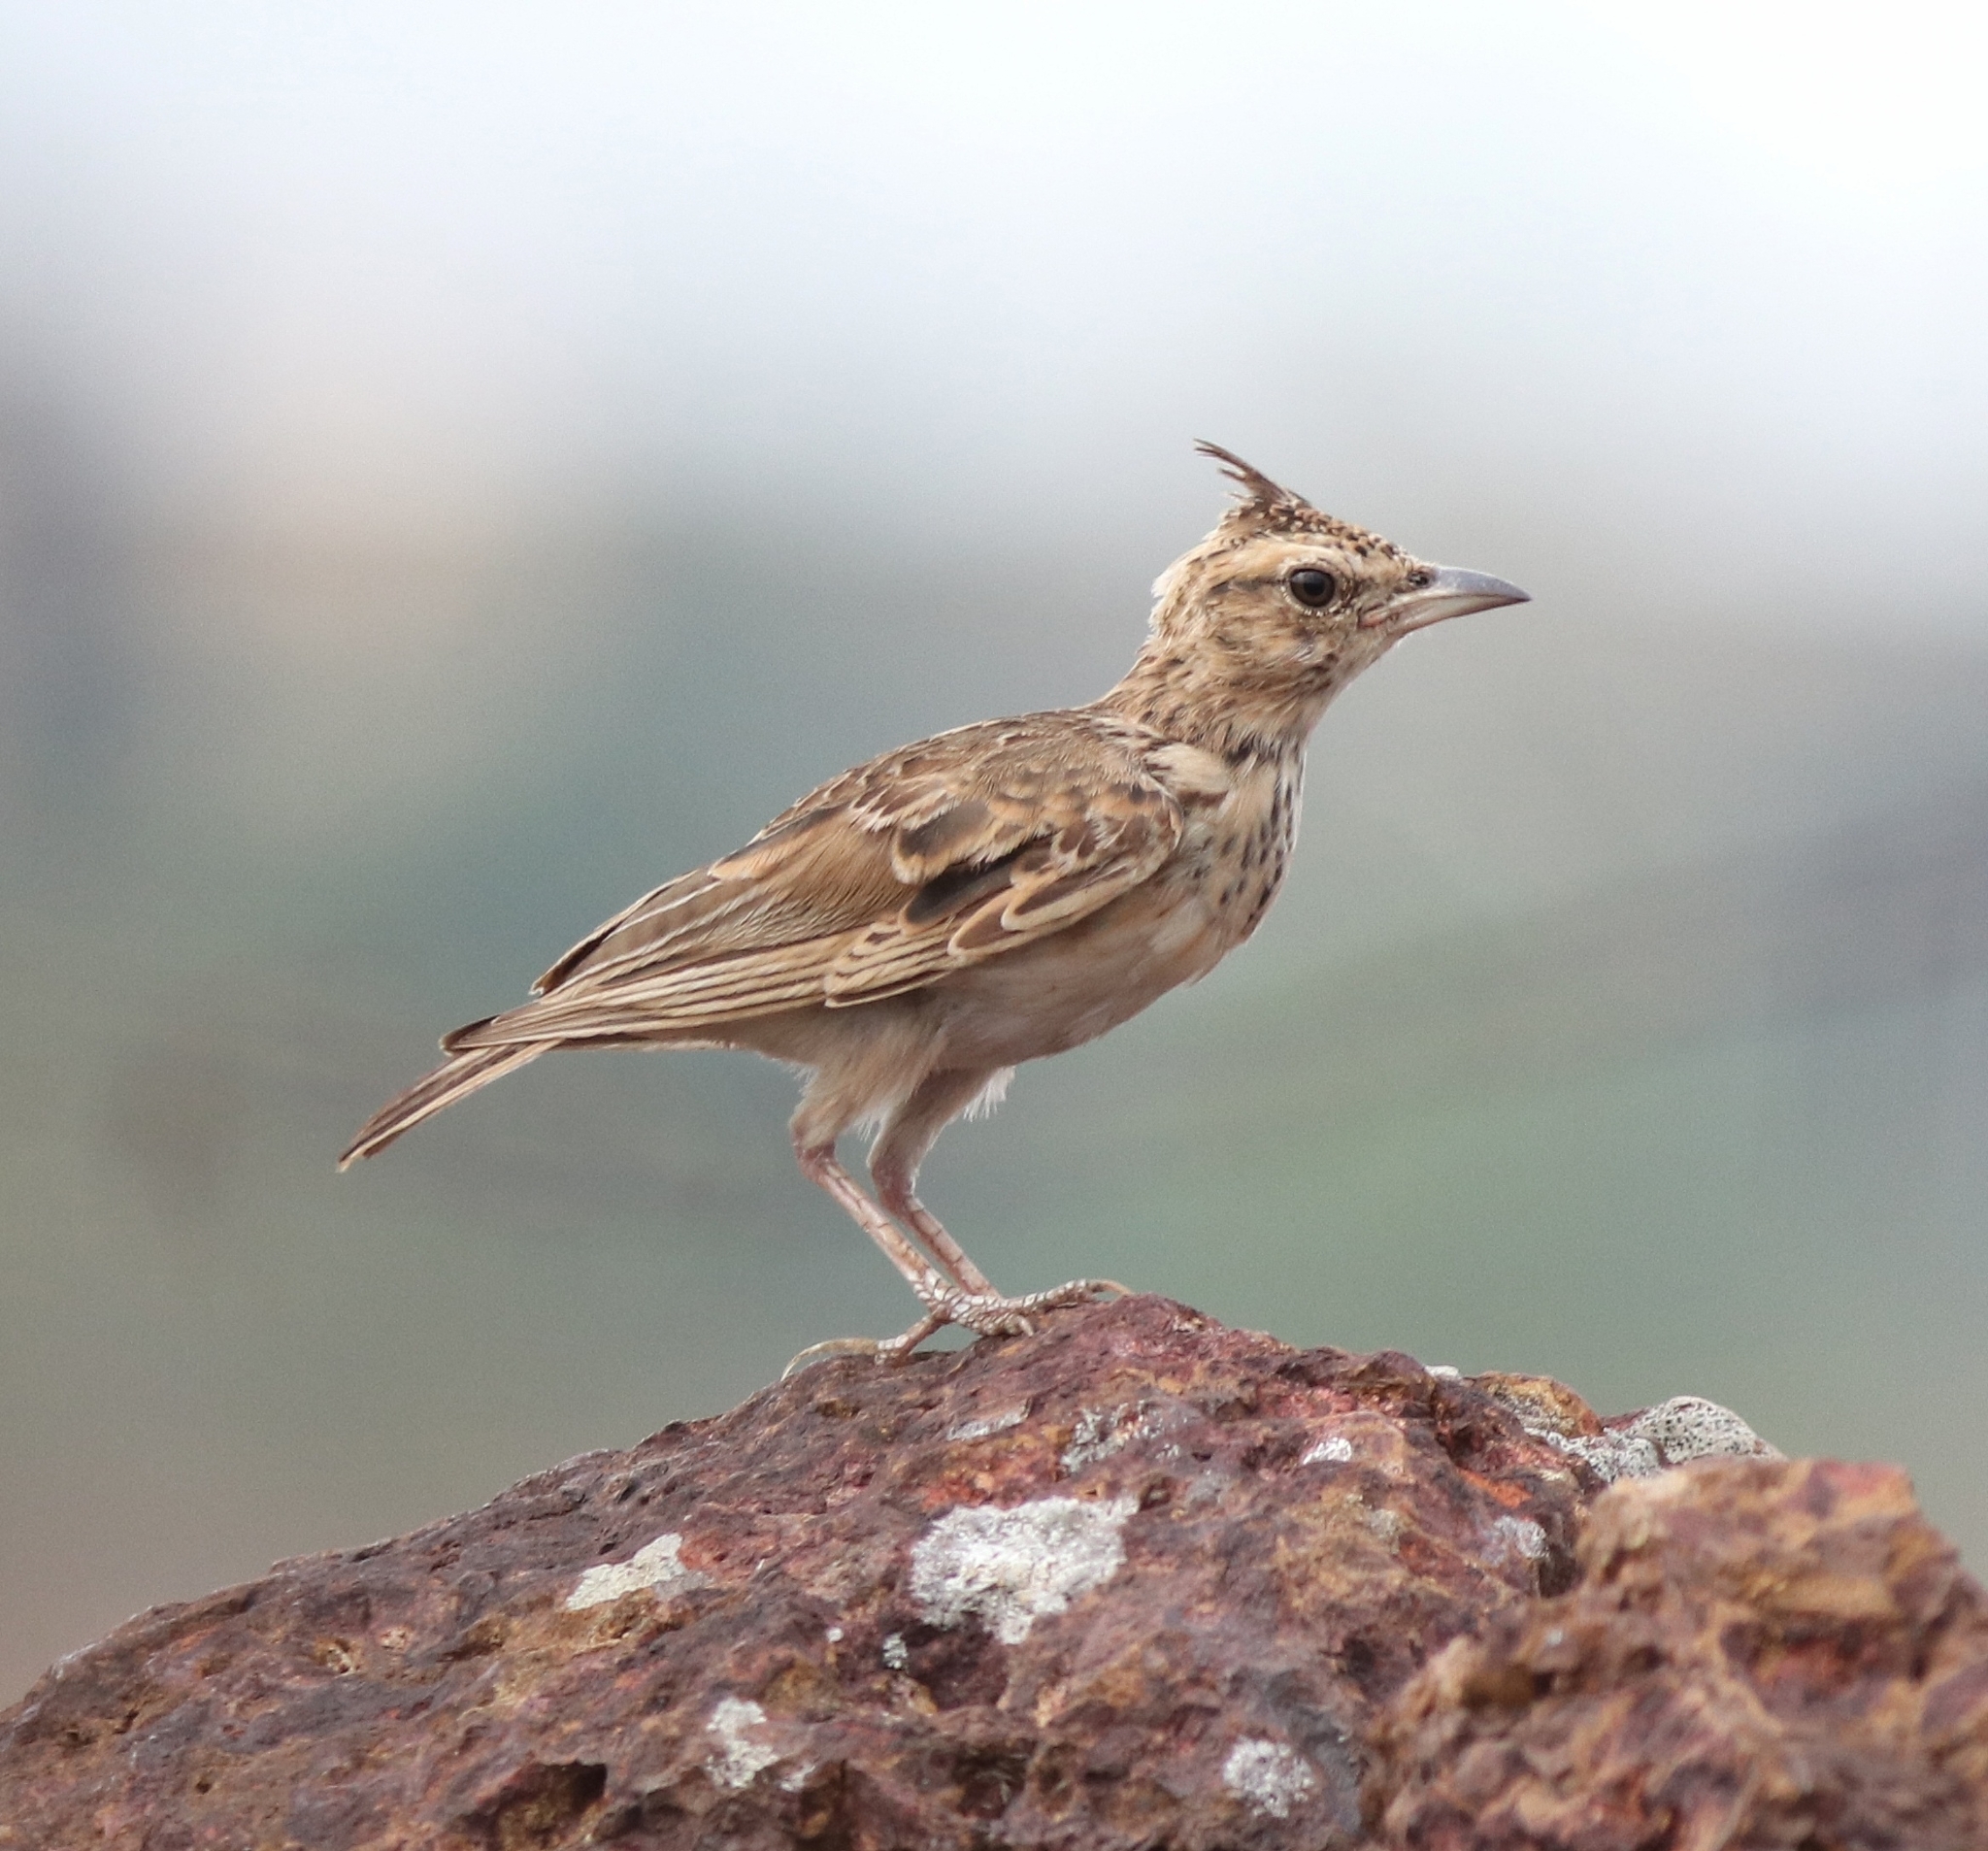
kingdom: Animalia
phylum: Chordata
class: Aves
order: Passeriformes
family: Alaudidae
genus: Galerida
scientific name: Galerida malabarica
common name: Malabar lark
